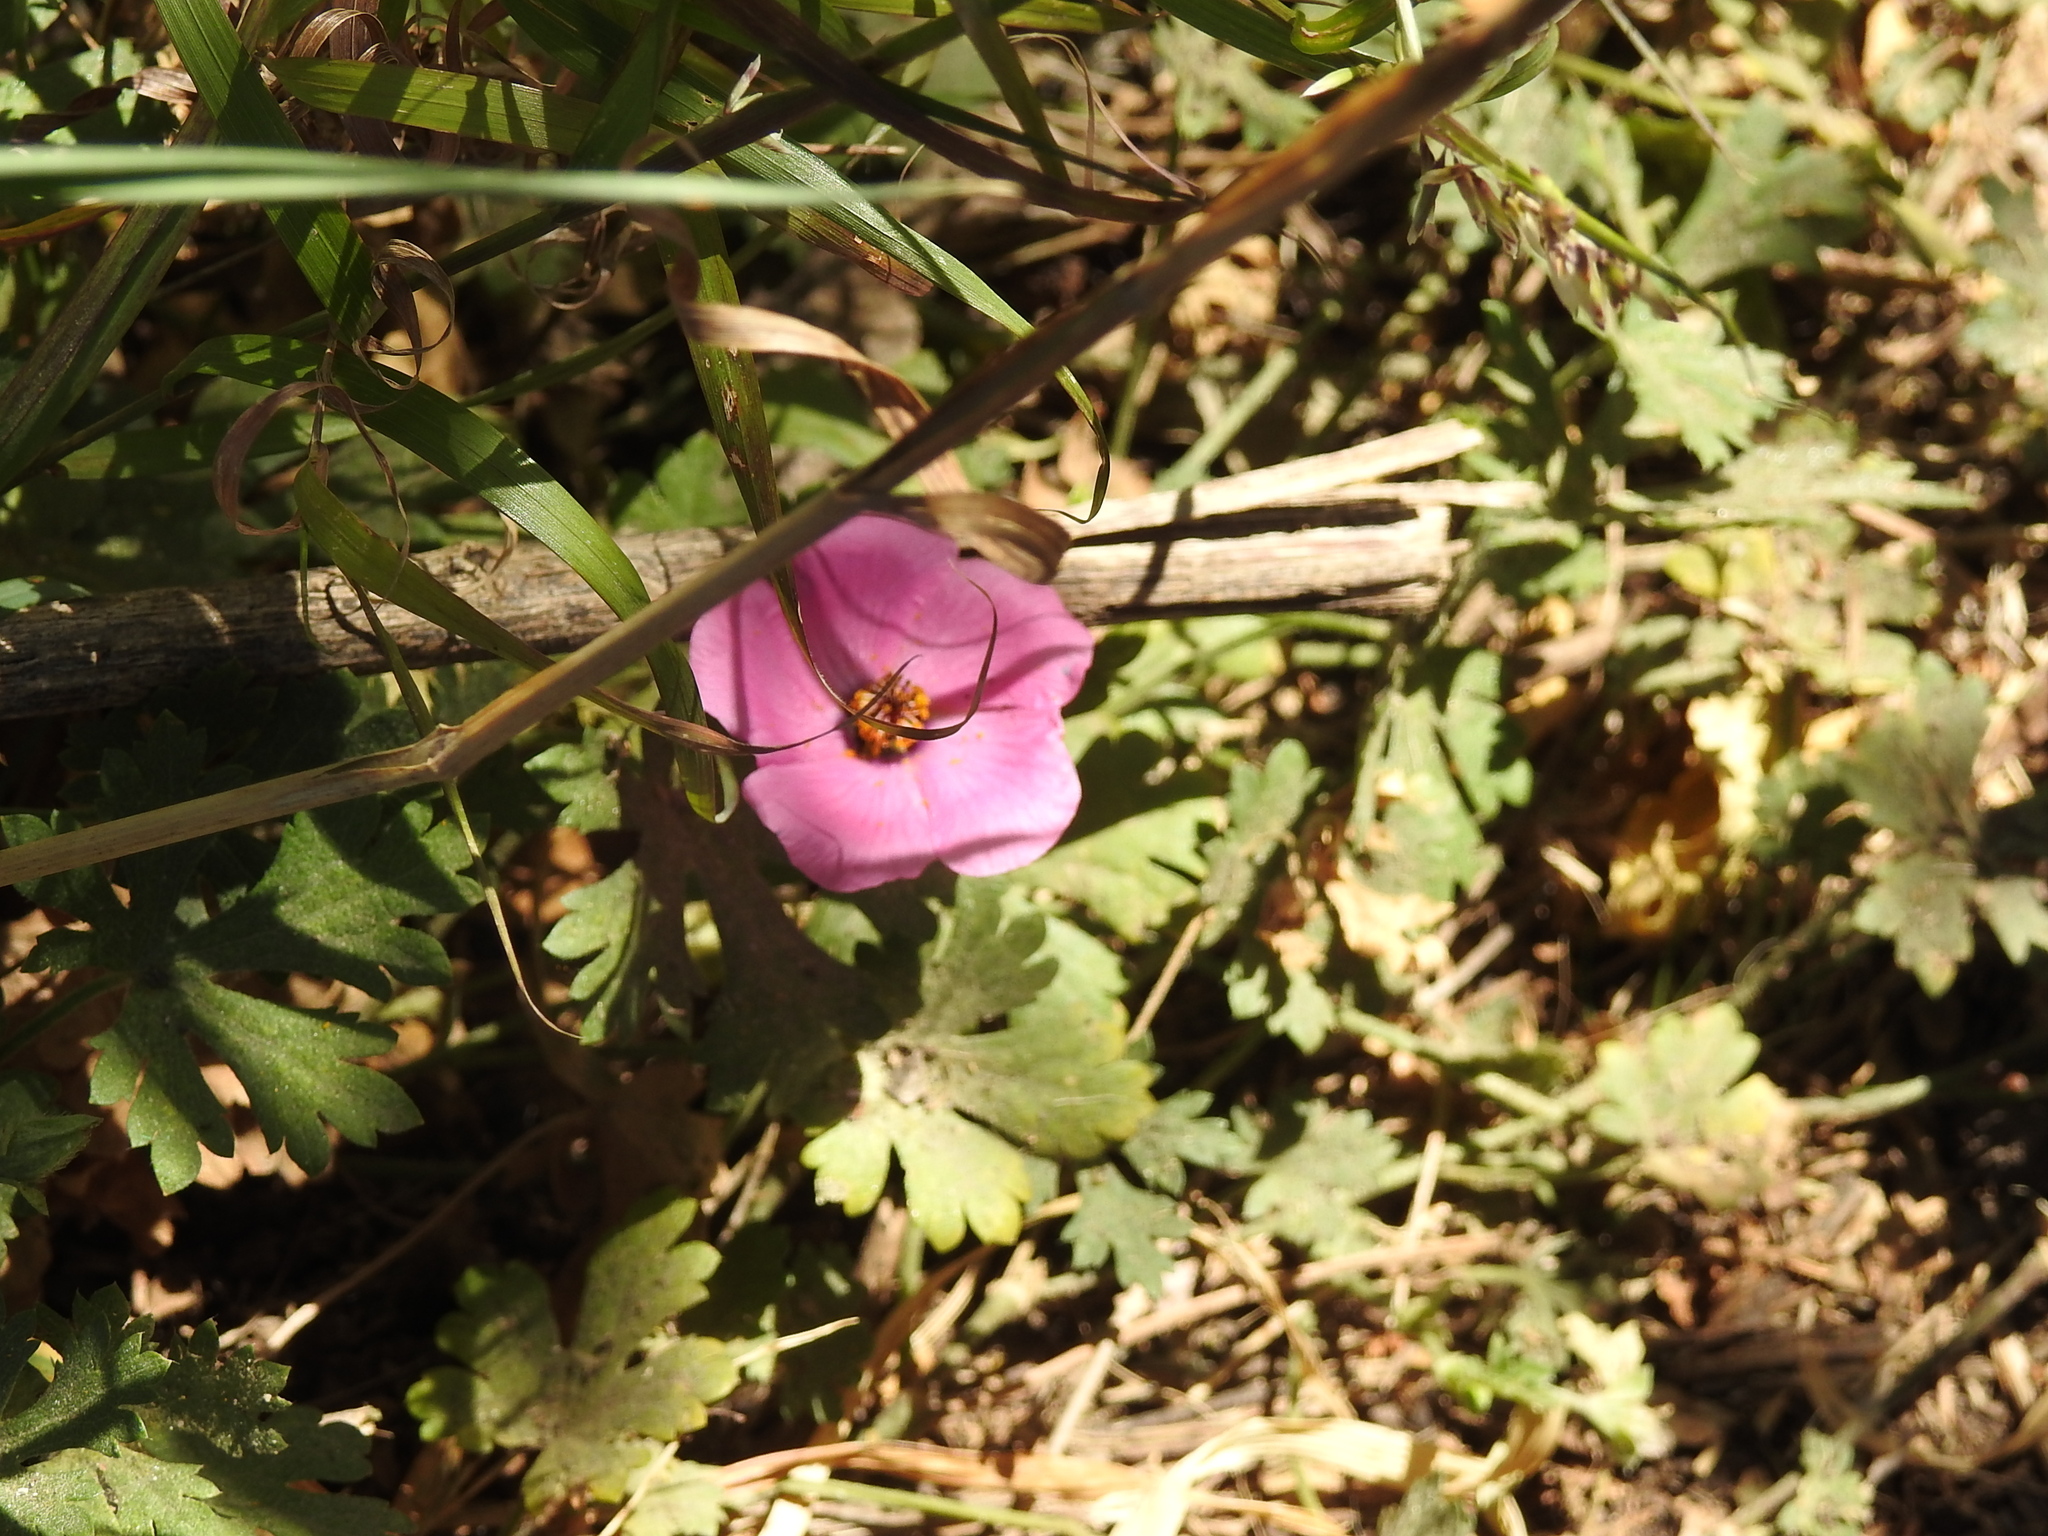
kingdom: Plantae
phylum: Tracheophyta
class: Magnoliopsida
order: Malvales
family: Malvaceae
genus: Modiolastrum
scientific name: Modiolastrum gilliesii
